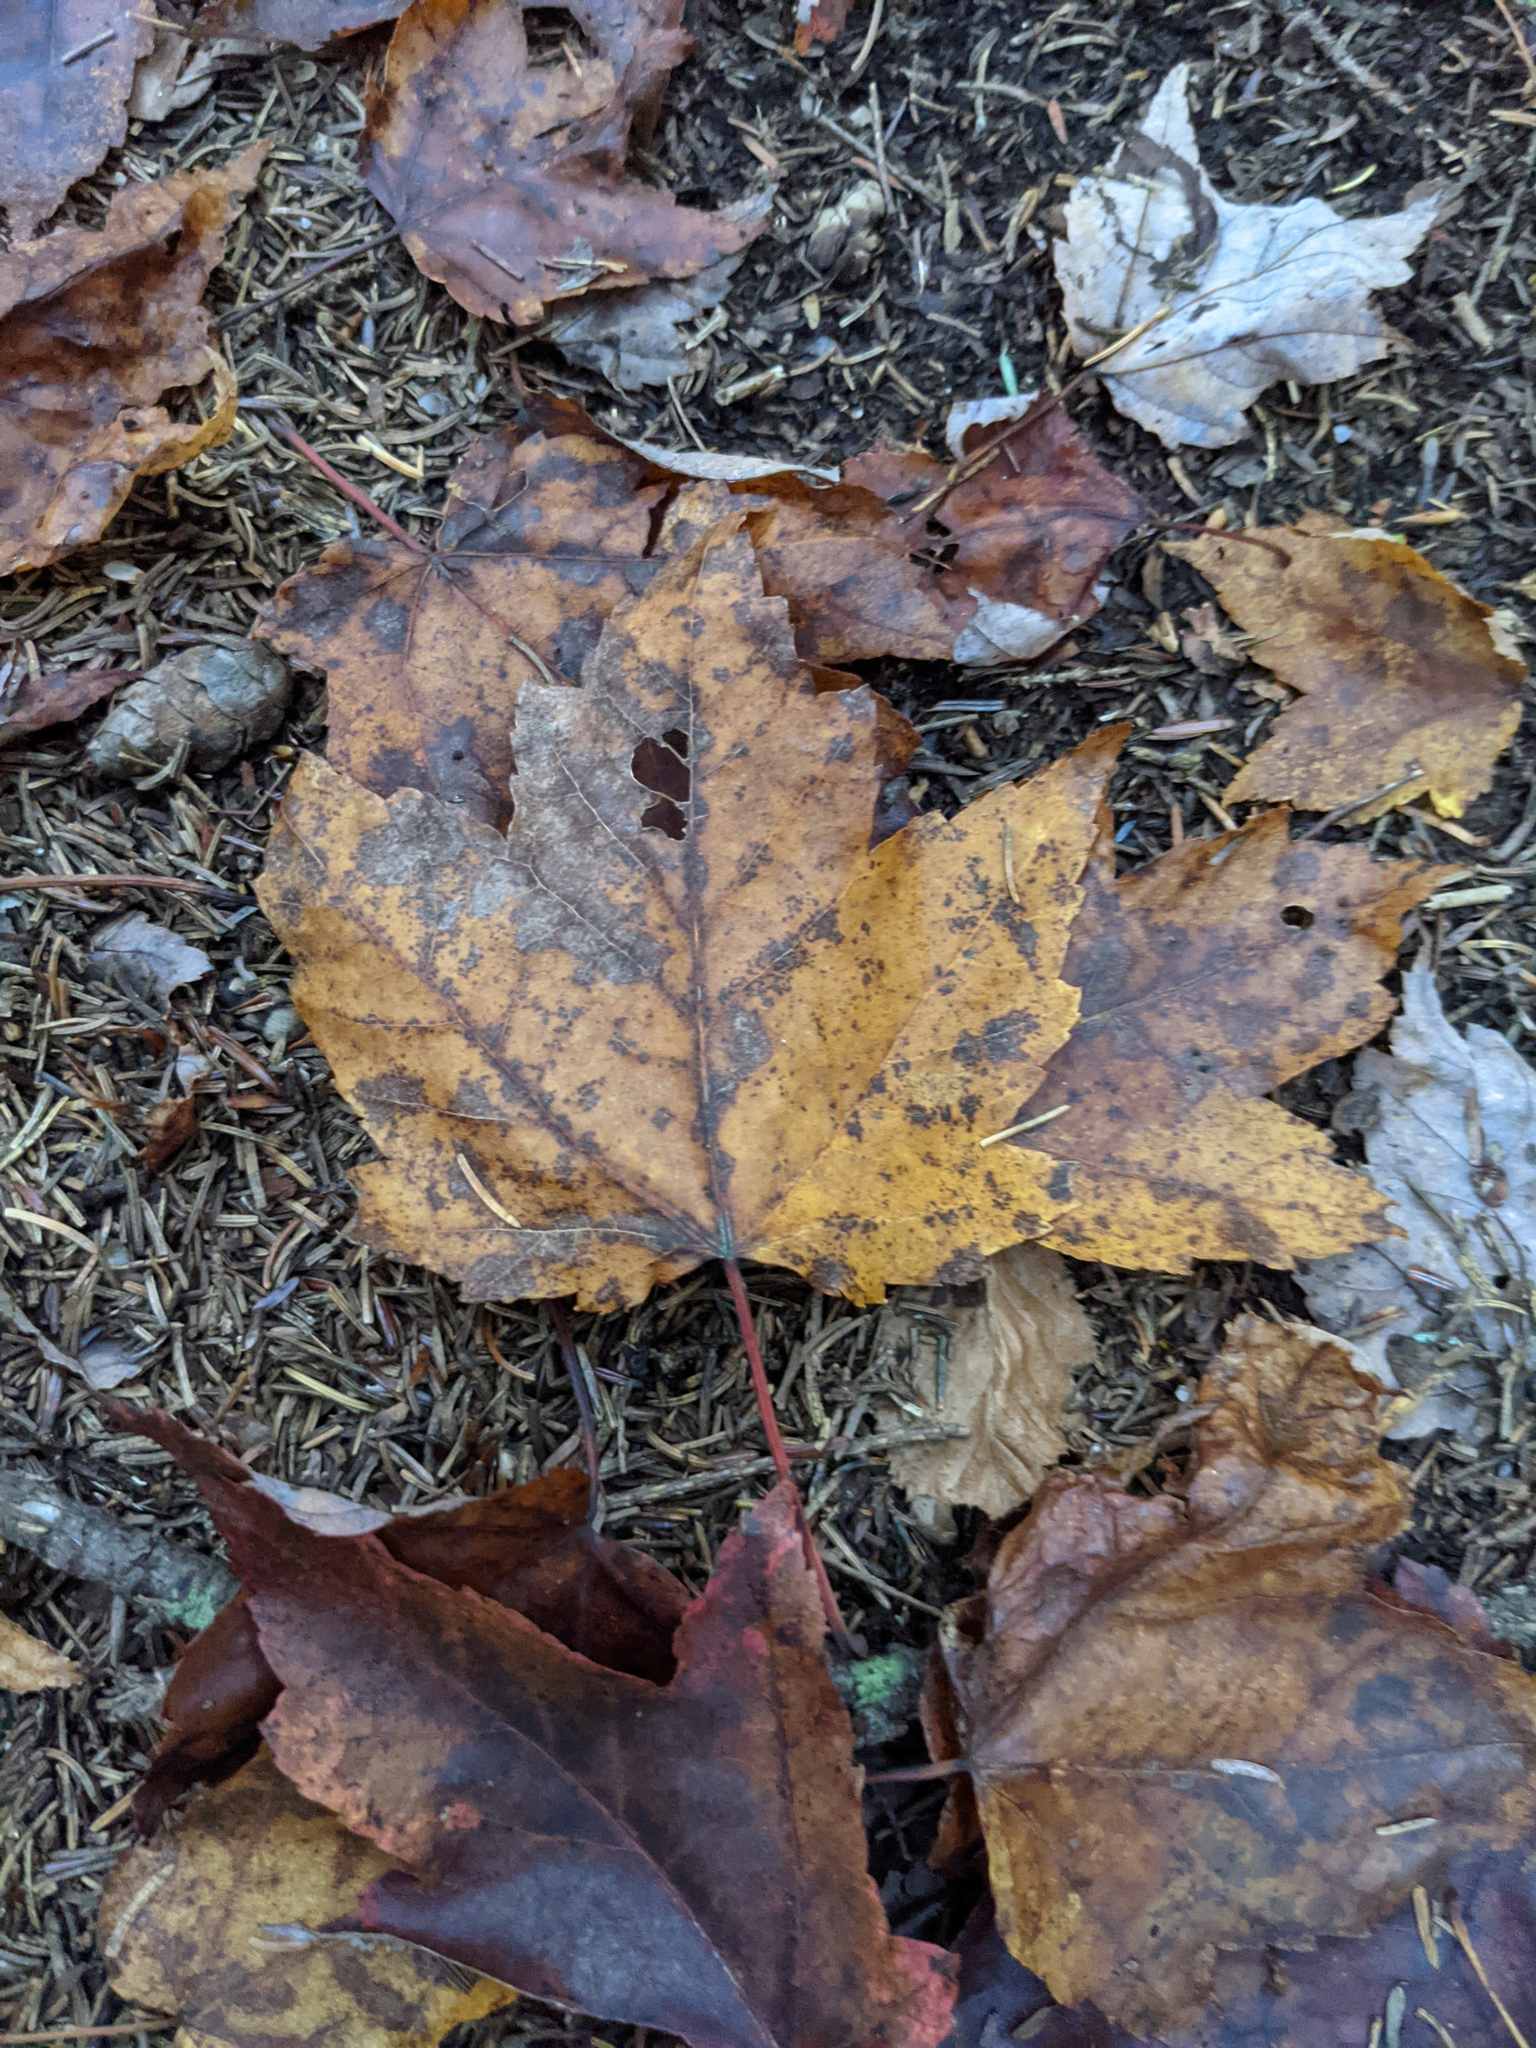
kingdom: Plantae
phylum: Tracheophyta
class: Magnoliopsida
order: Sapindales
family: Sapindaceae
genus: Acer
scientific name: Acer rubrum
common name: Red maple
